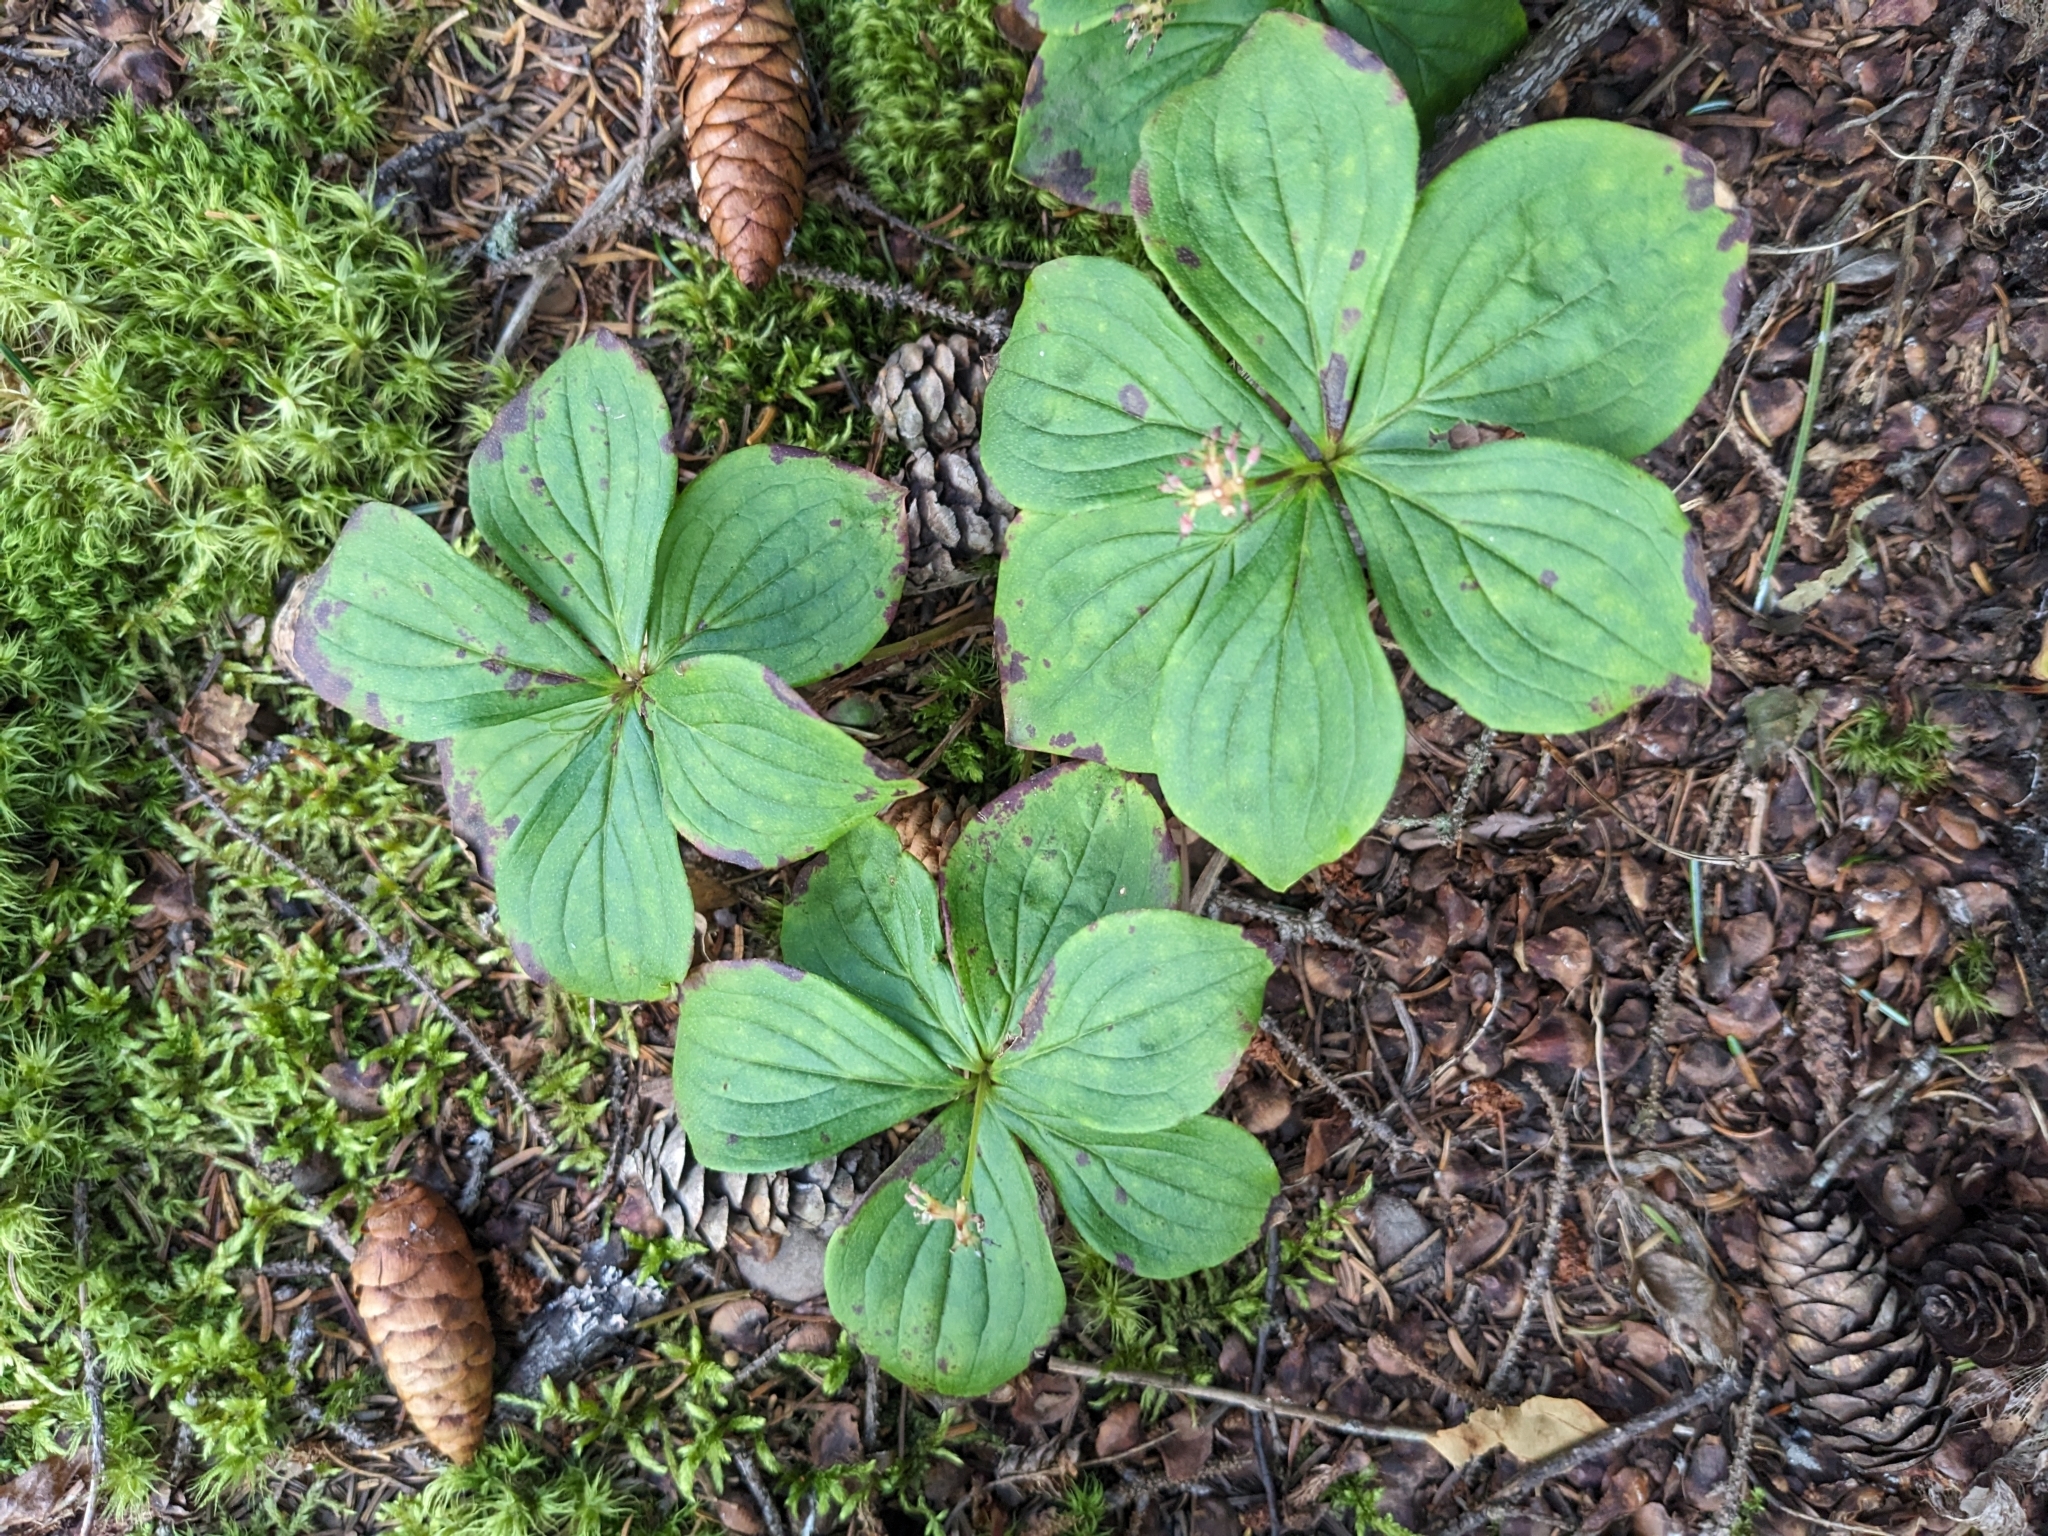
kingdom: Plantae
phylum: Tracheophyta
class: Magnoliopsida
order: Cornales
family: Cornaceae
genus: Cornus
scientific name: Cornus canadensis
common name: Creeping dogwood
